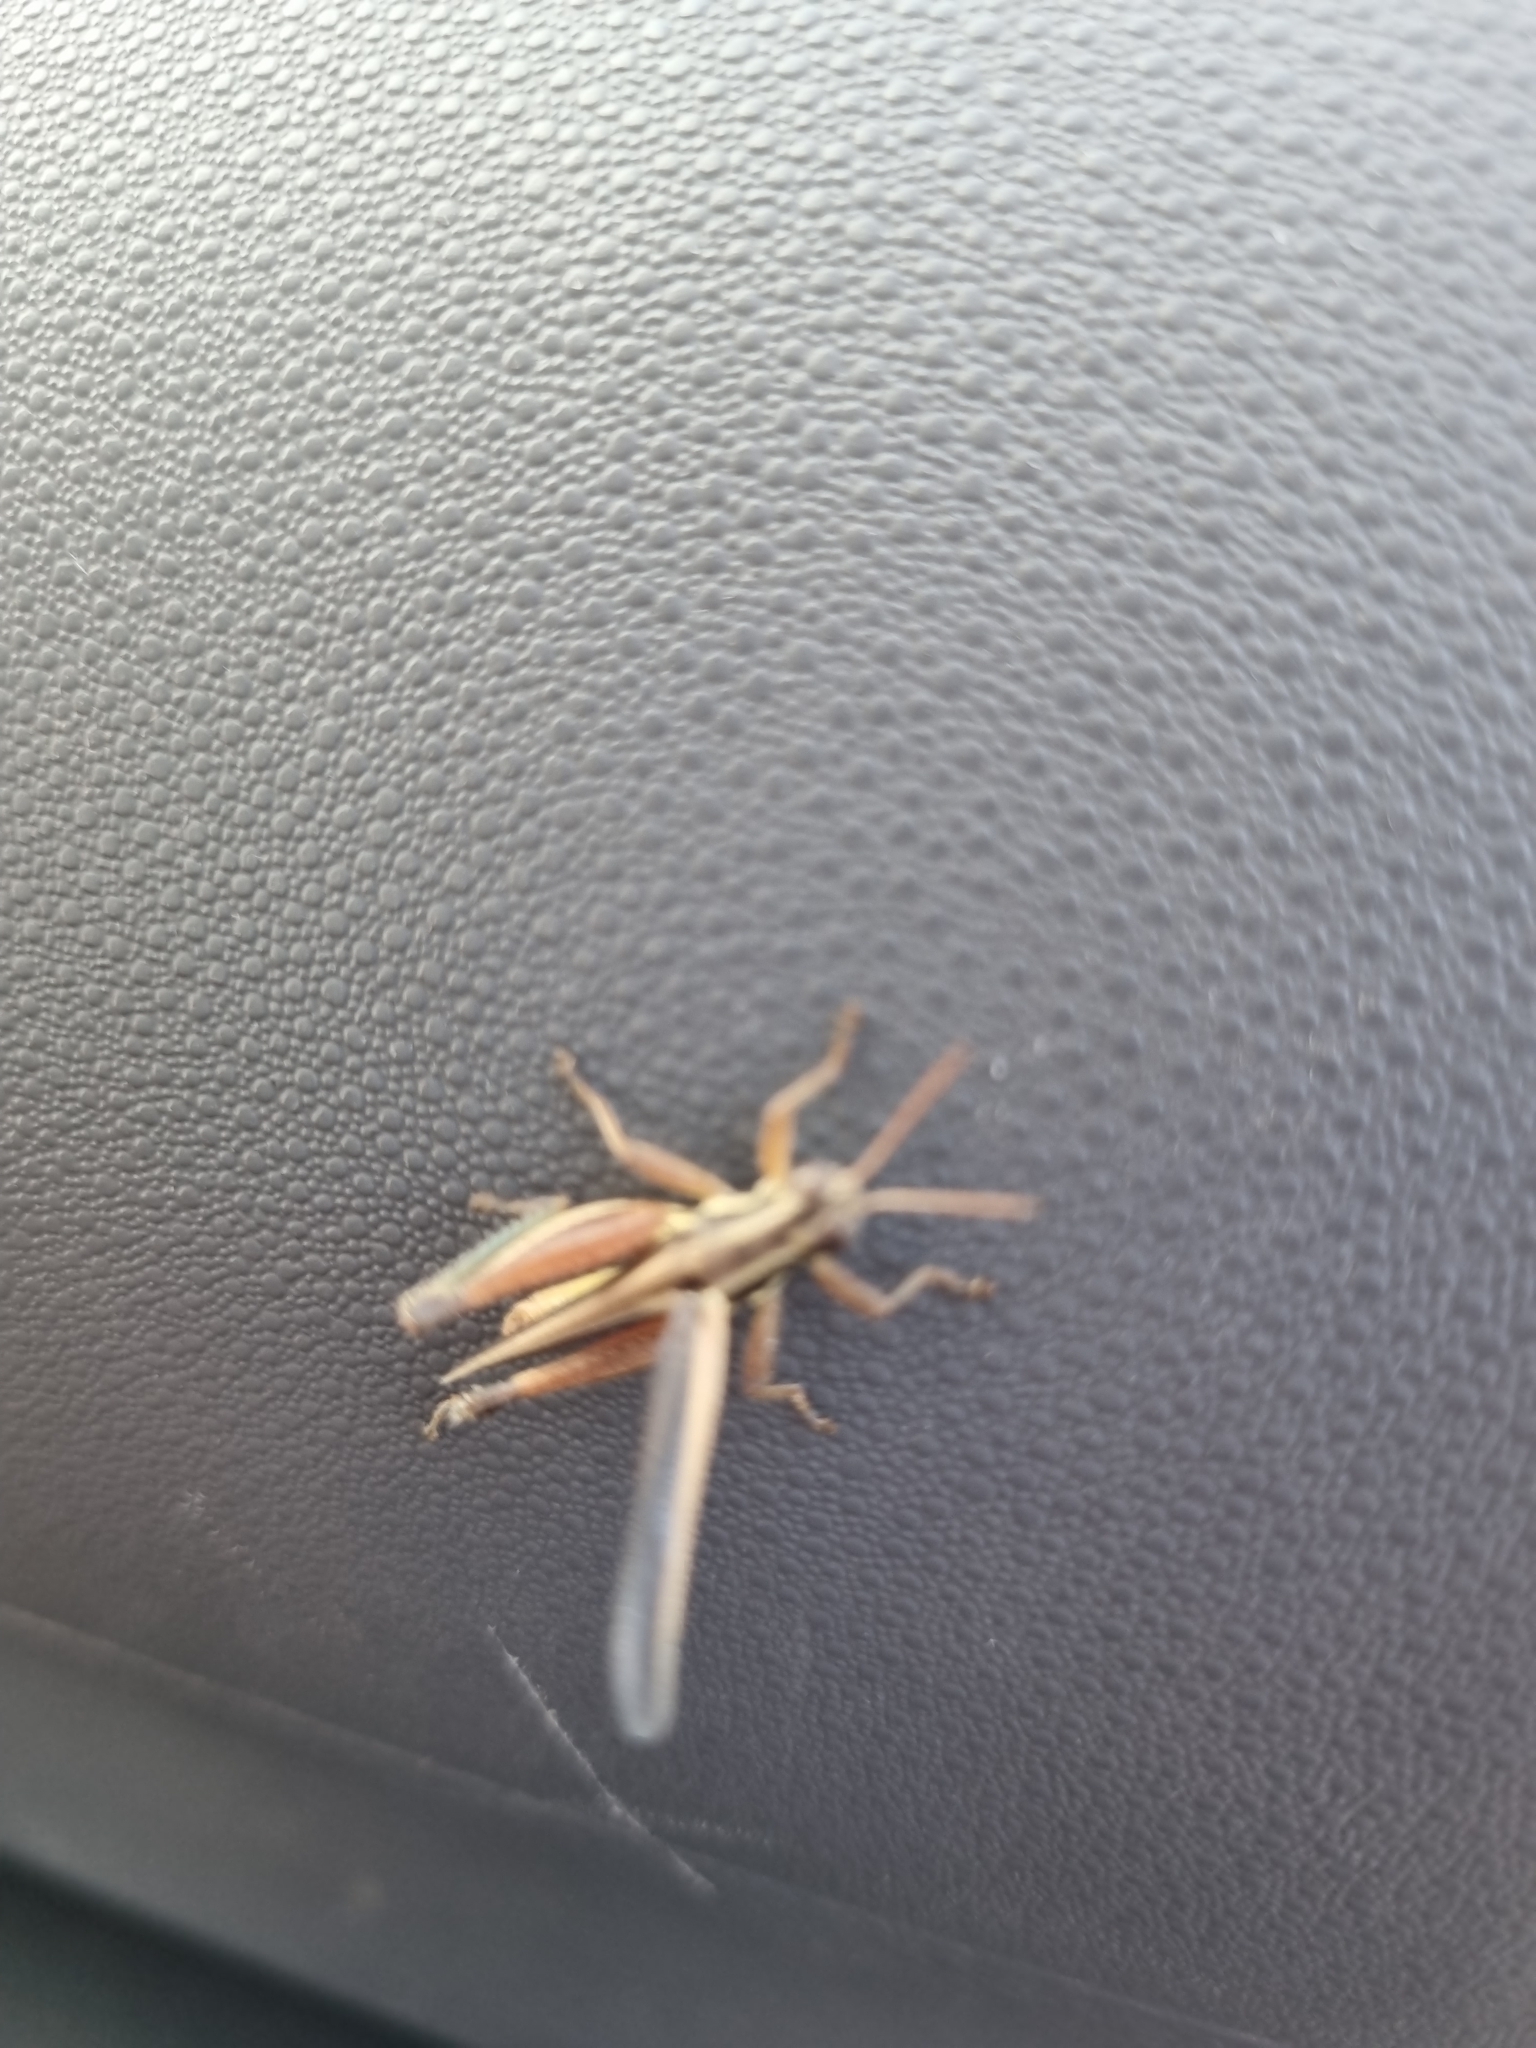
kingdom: Animalia
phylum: Arthropoda
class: Insecta
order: Orthoptera
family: Acrididae
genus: Dichroplus
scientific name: Dichroplus elongatus
